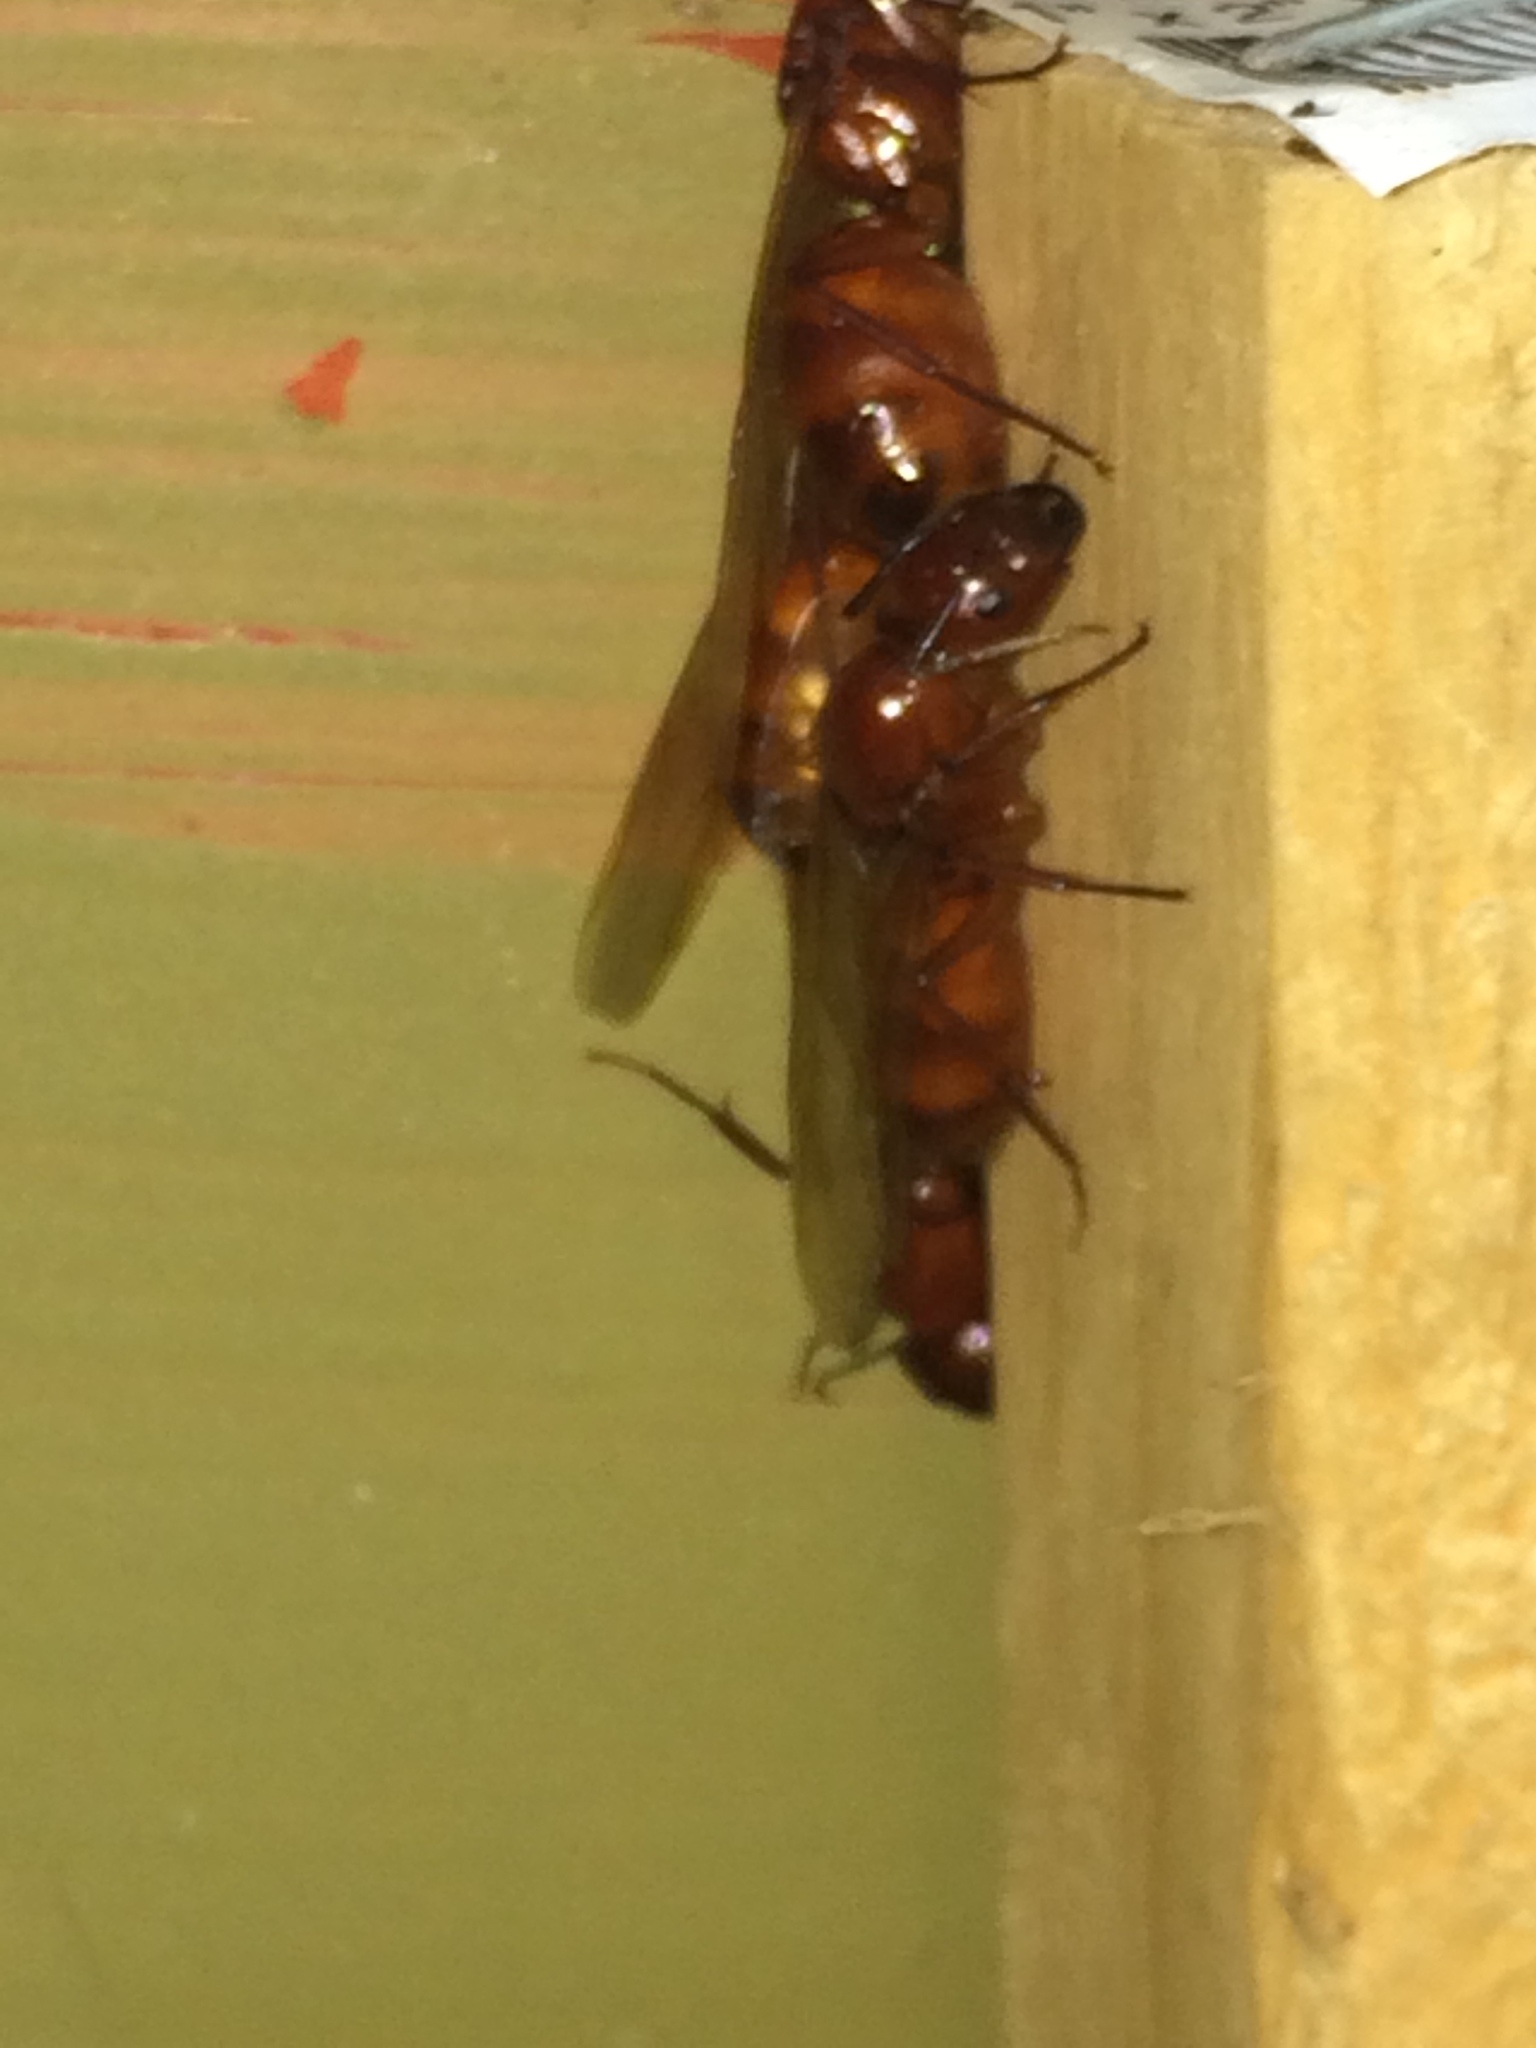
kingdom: Animalia
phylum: Arthropoda
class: Insecta
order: Hymenoptera
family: Formicidae
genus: Camponotus
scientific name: Camponotus castaneus
